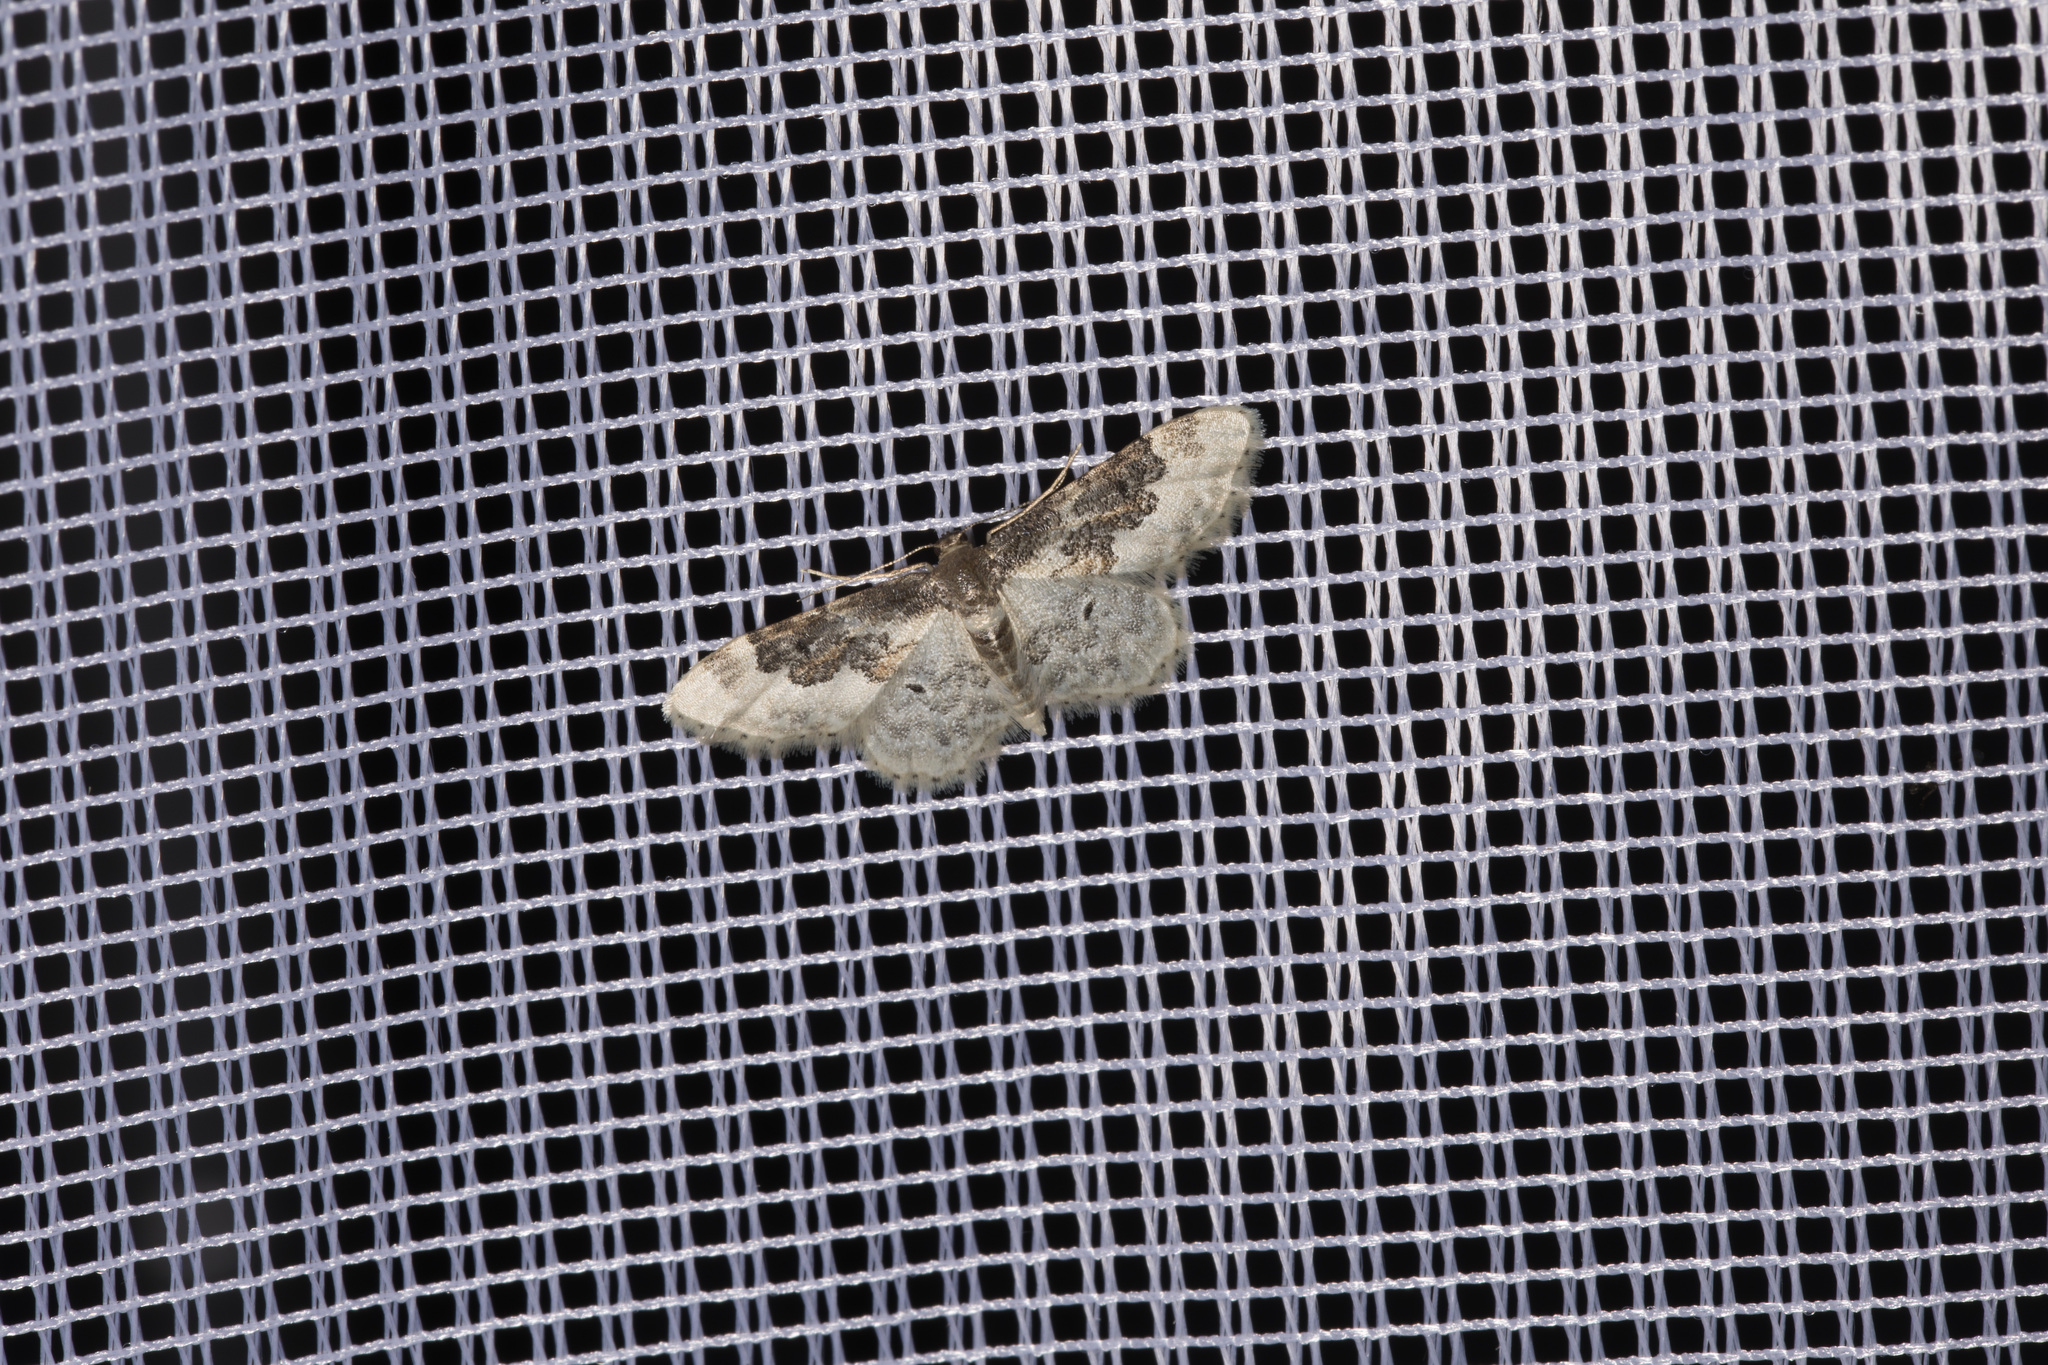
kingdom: Animalia
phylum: Arthropoda
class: Insecta
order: Lepidoptera
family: Geometridae
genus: Idaea
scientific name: Idaea rusticata
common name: Least carpet
